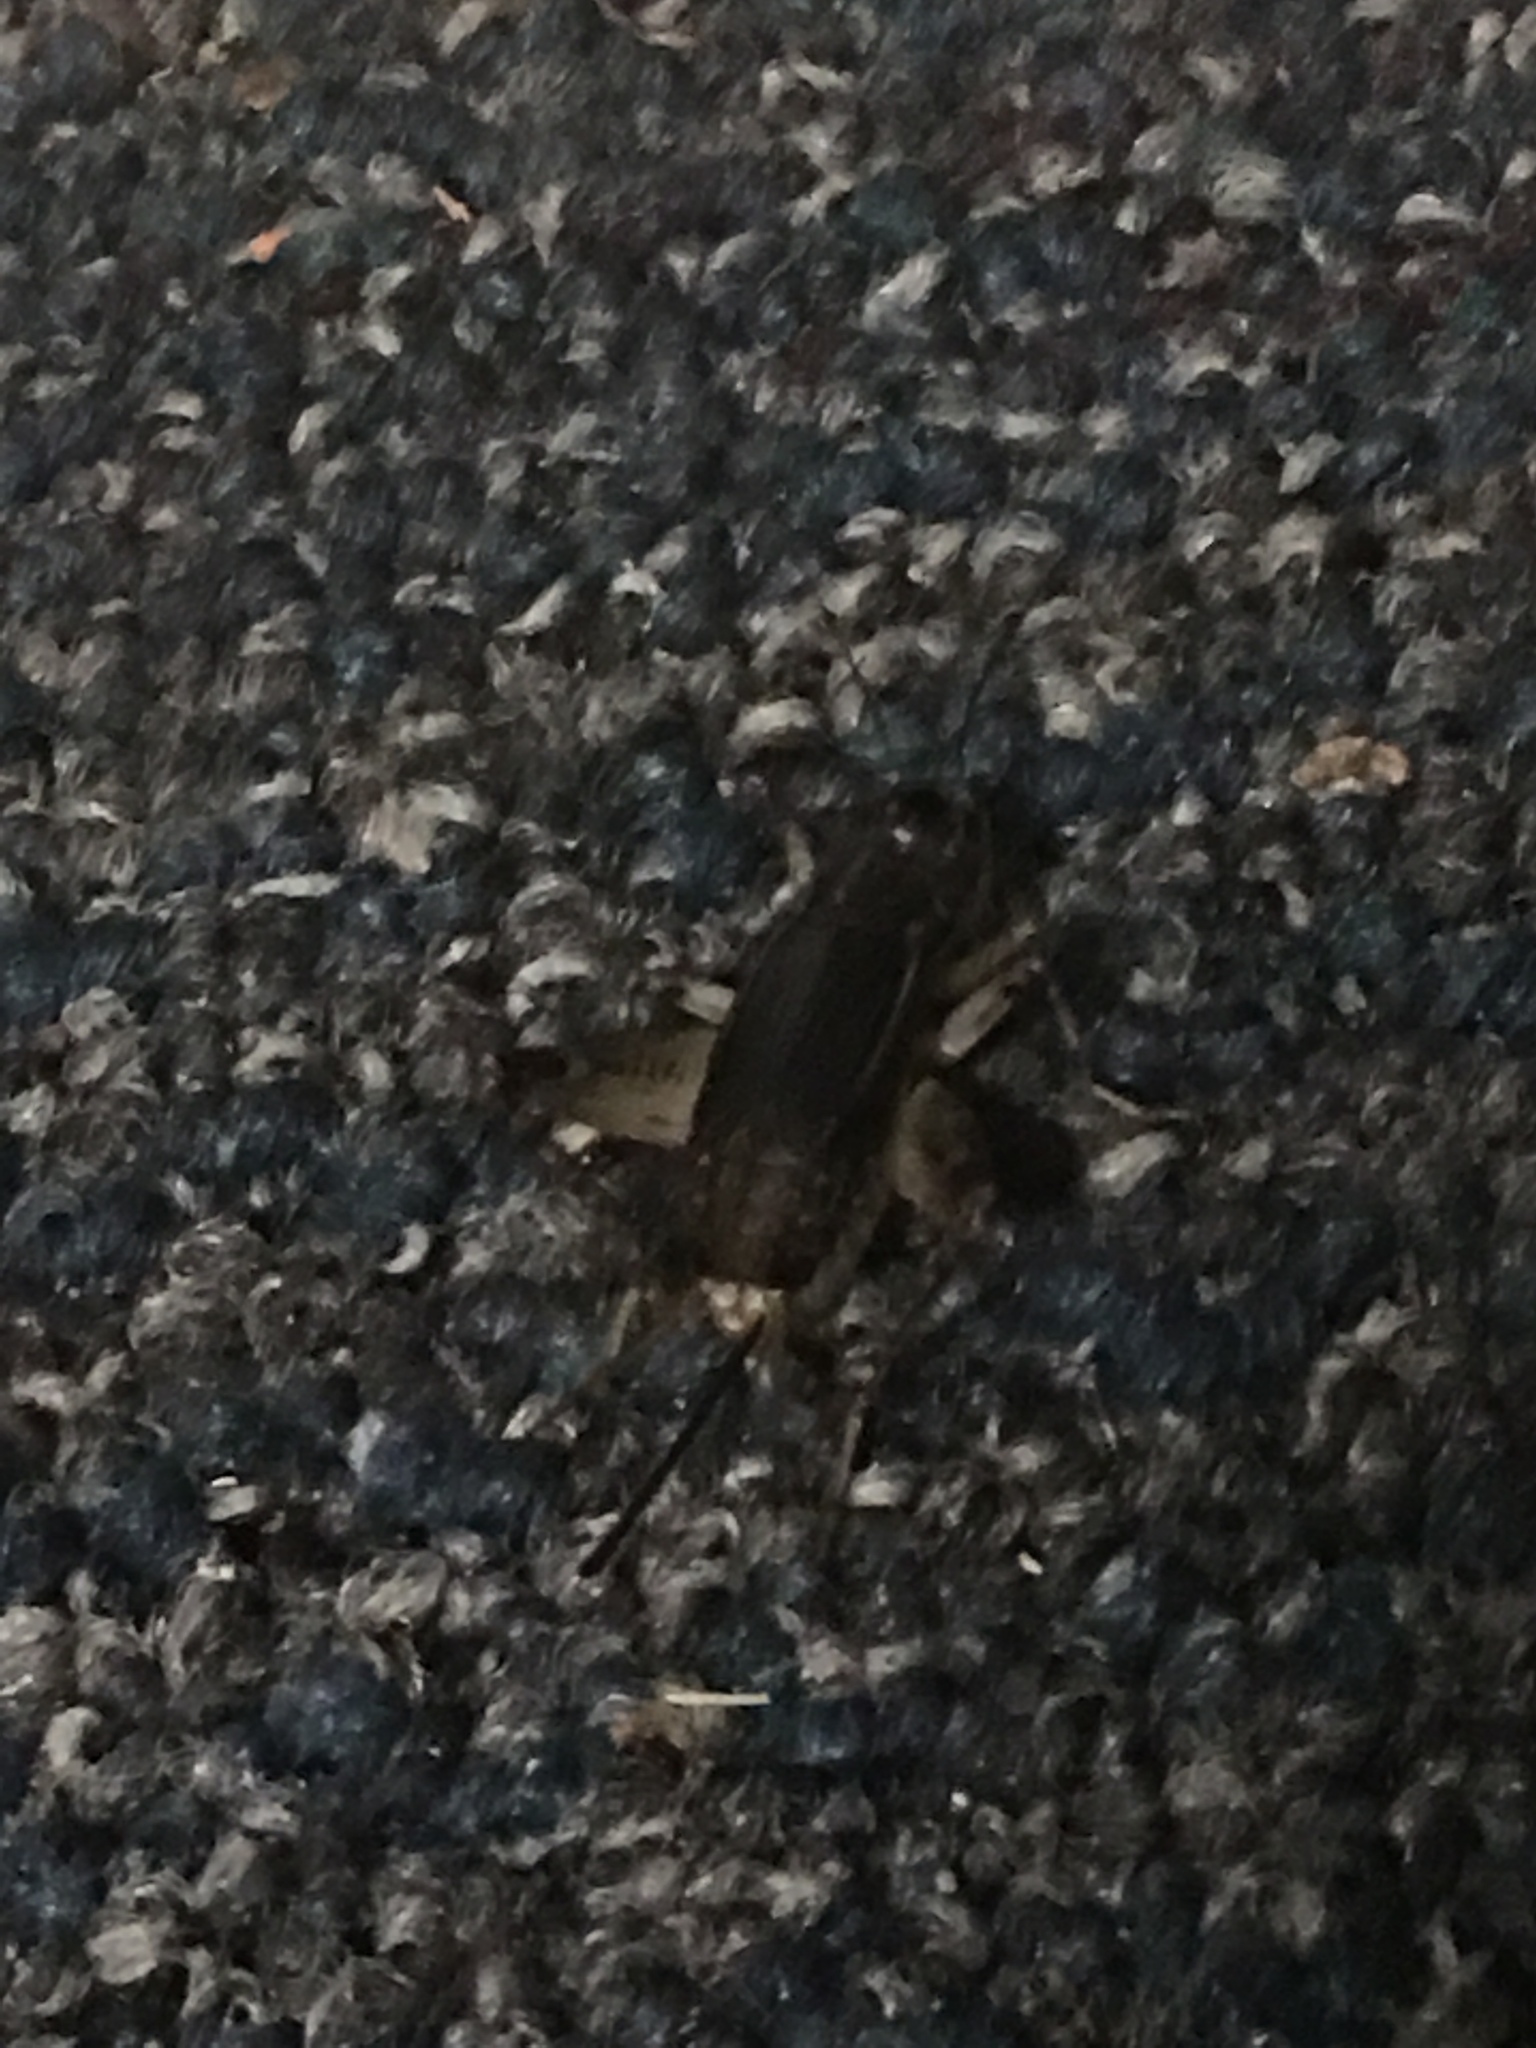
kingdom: Animalia
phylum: Arthropoda
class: Insecta
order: Orthoptera
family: Gryllidae
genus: Velarifictorus
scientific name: Velarifictorus micado
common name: Japanese burrowing cricket
